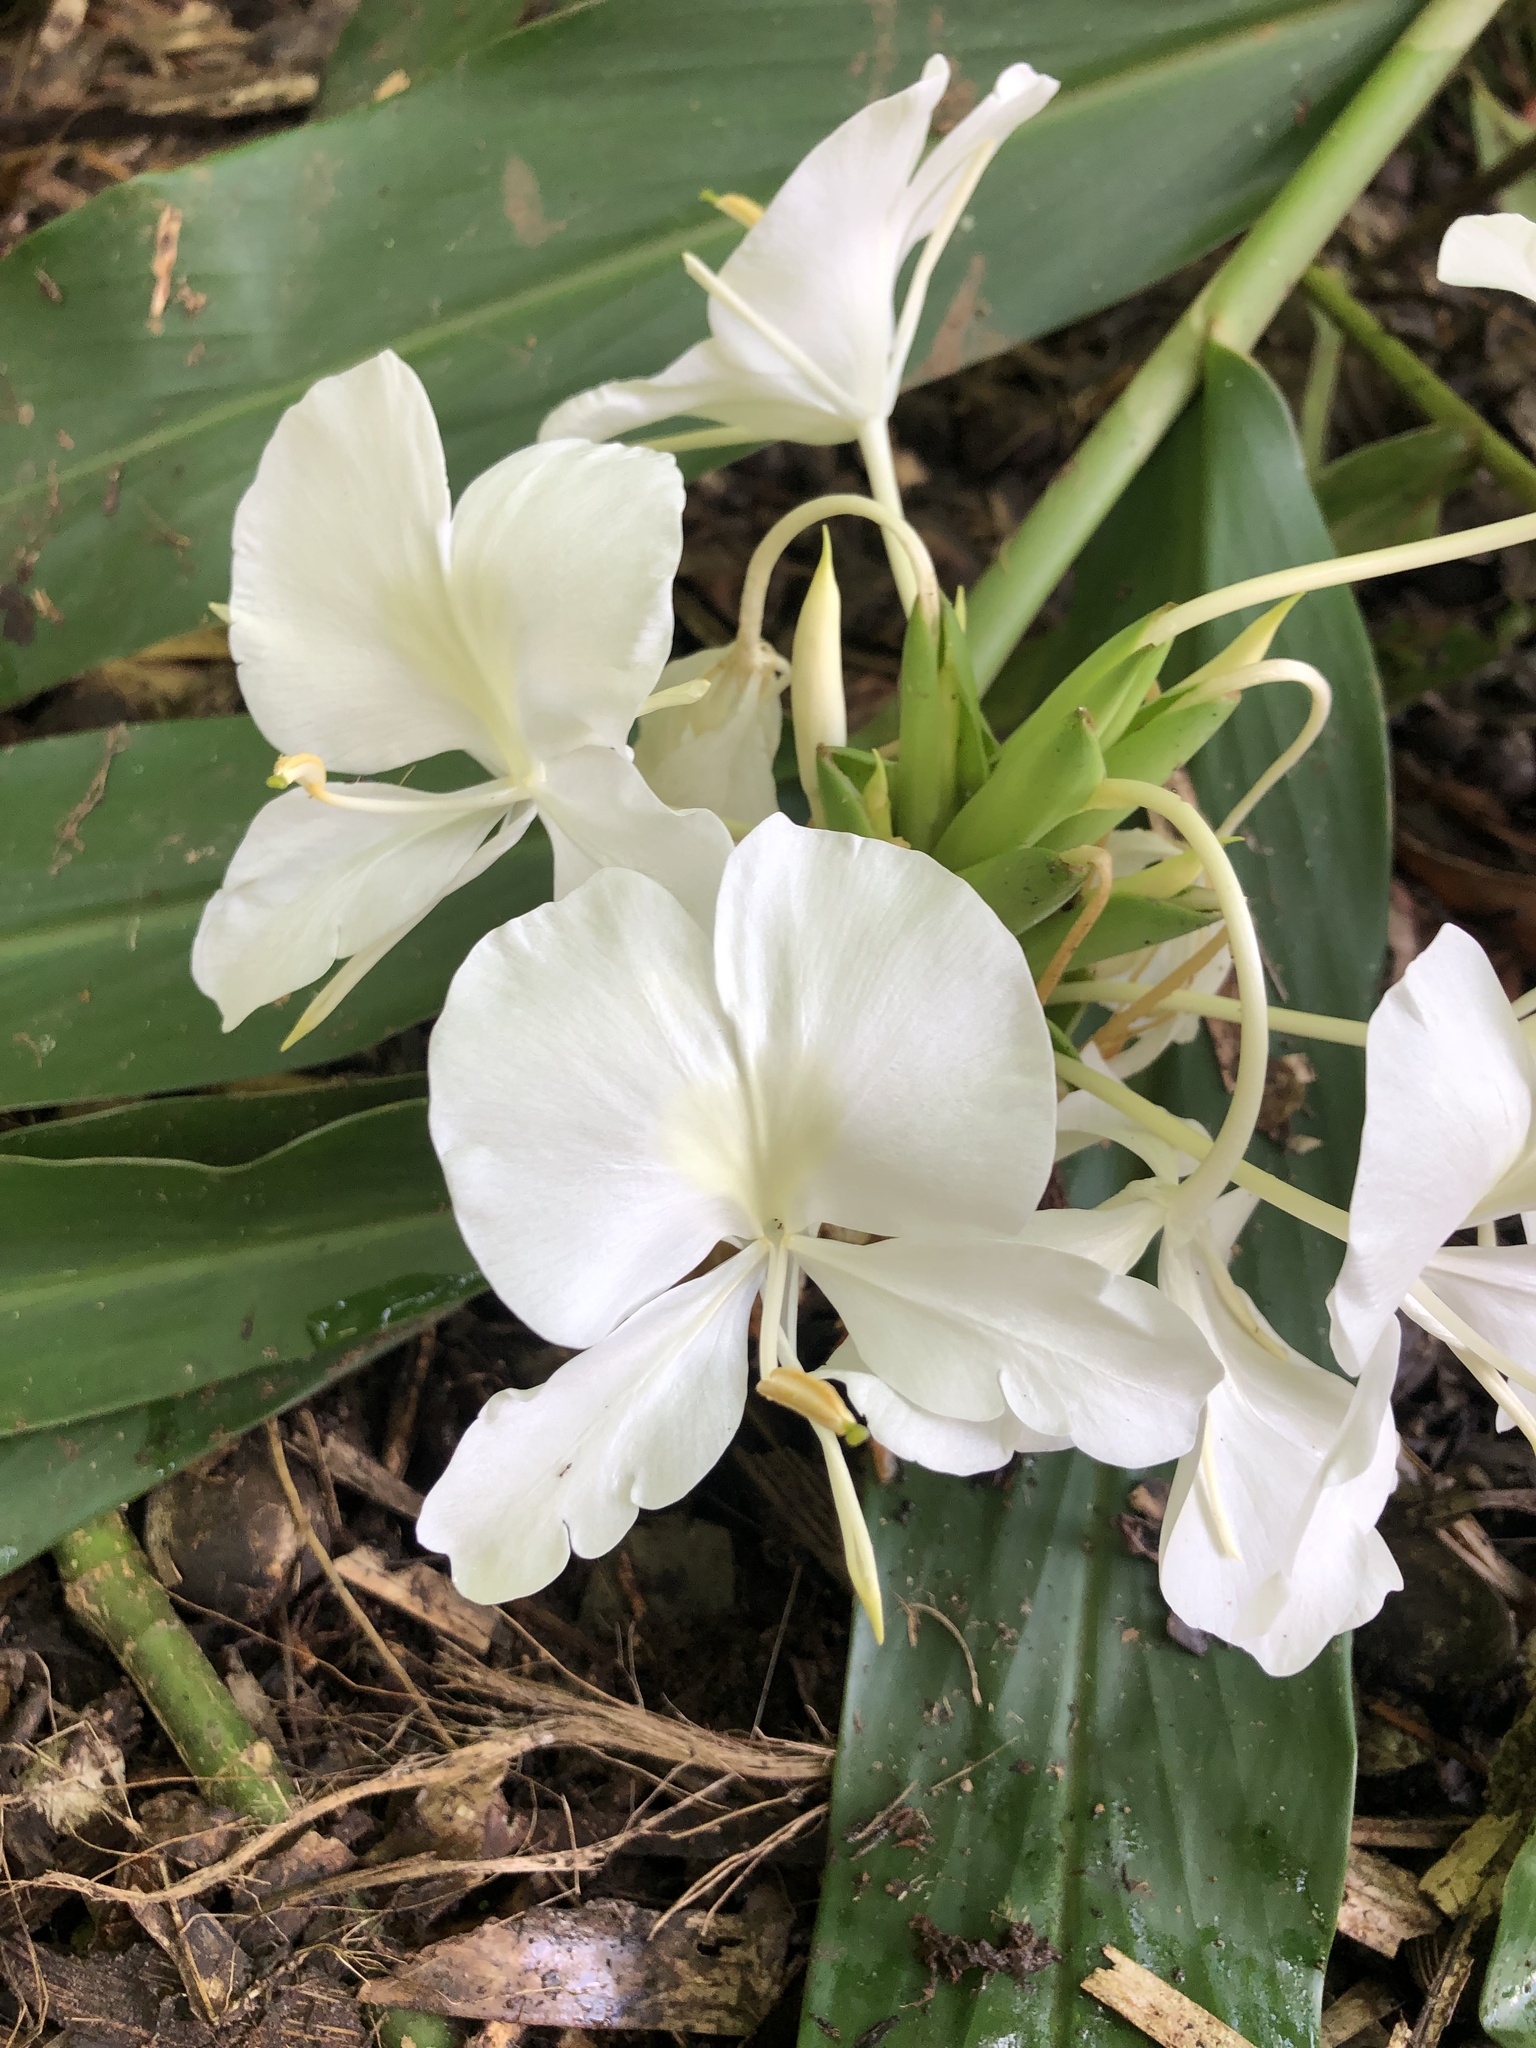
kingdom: Plantae
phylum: Tracheophyta
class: Liliopsida
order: Zingiberales
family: Zingiberaceae
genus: Hedychium
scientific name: Hedychium coronarium
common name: White garland-lily
